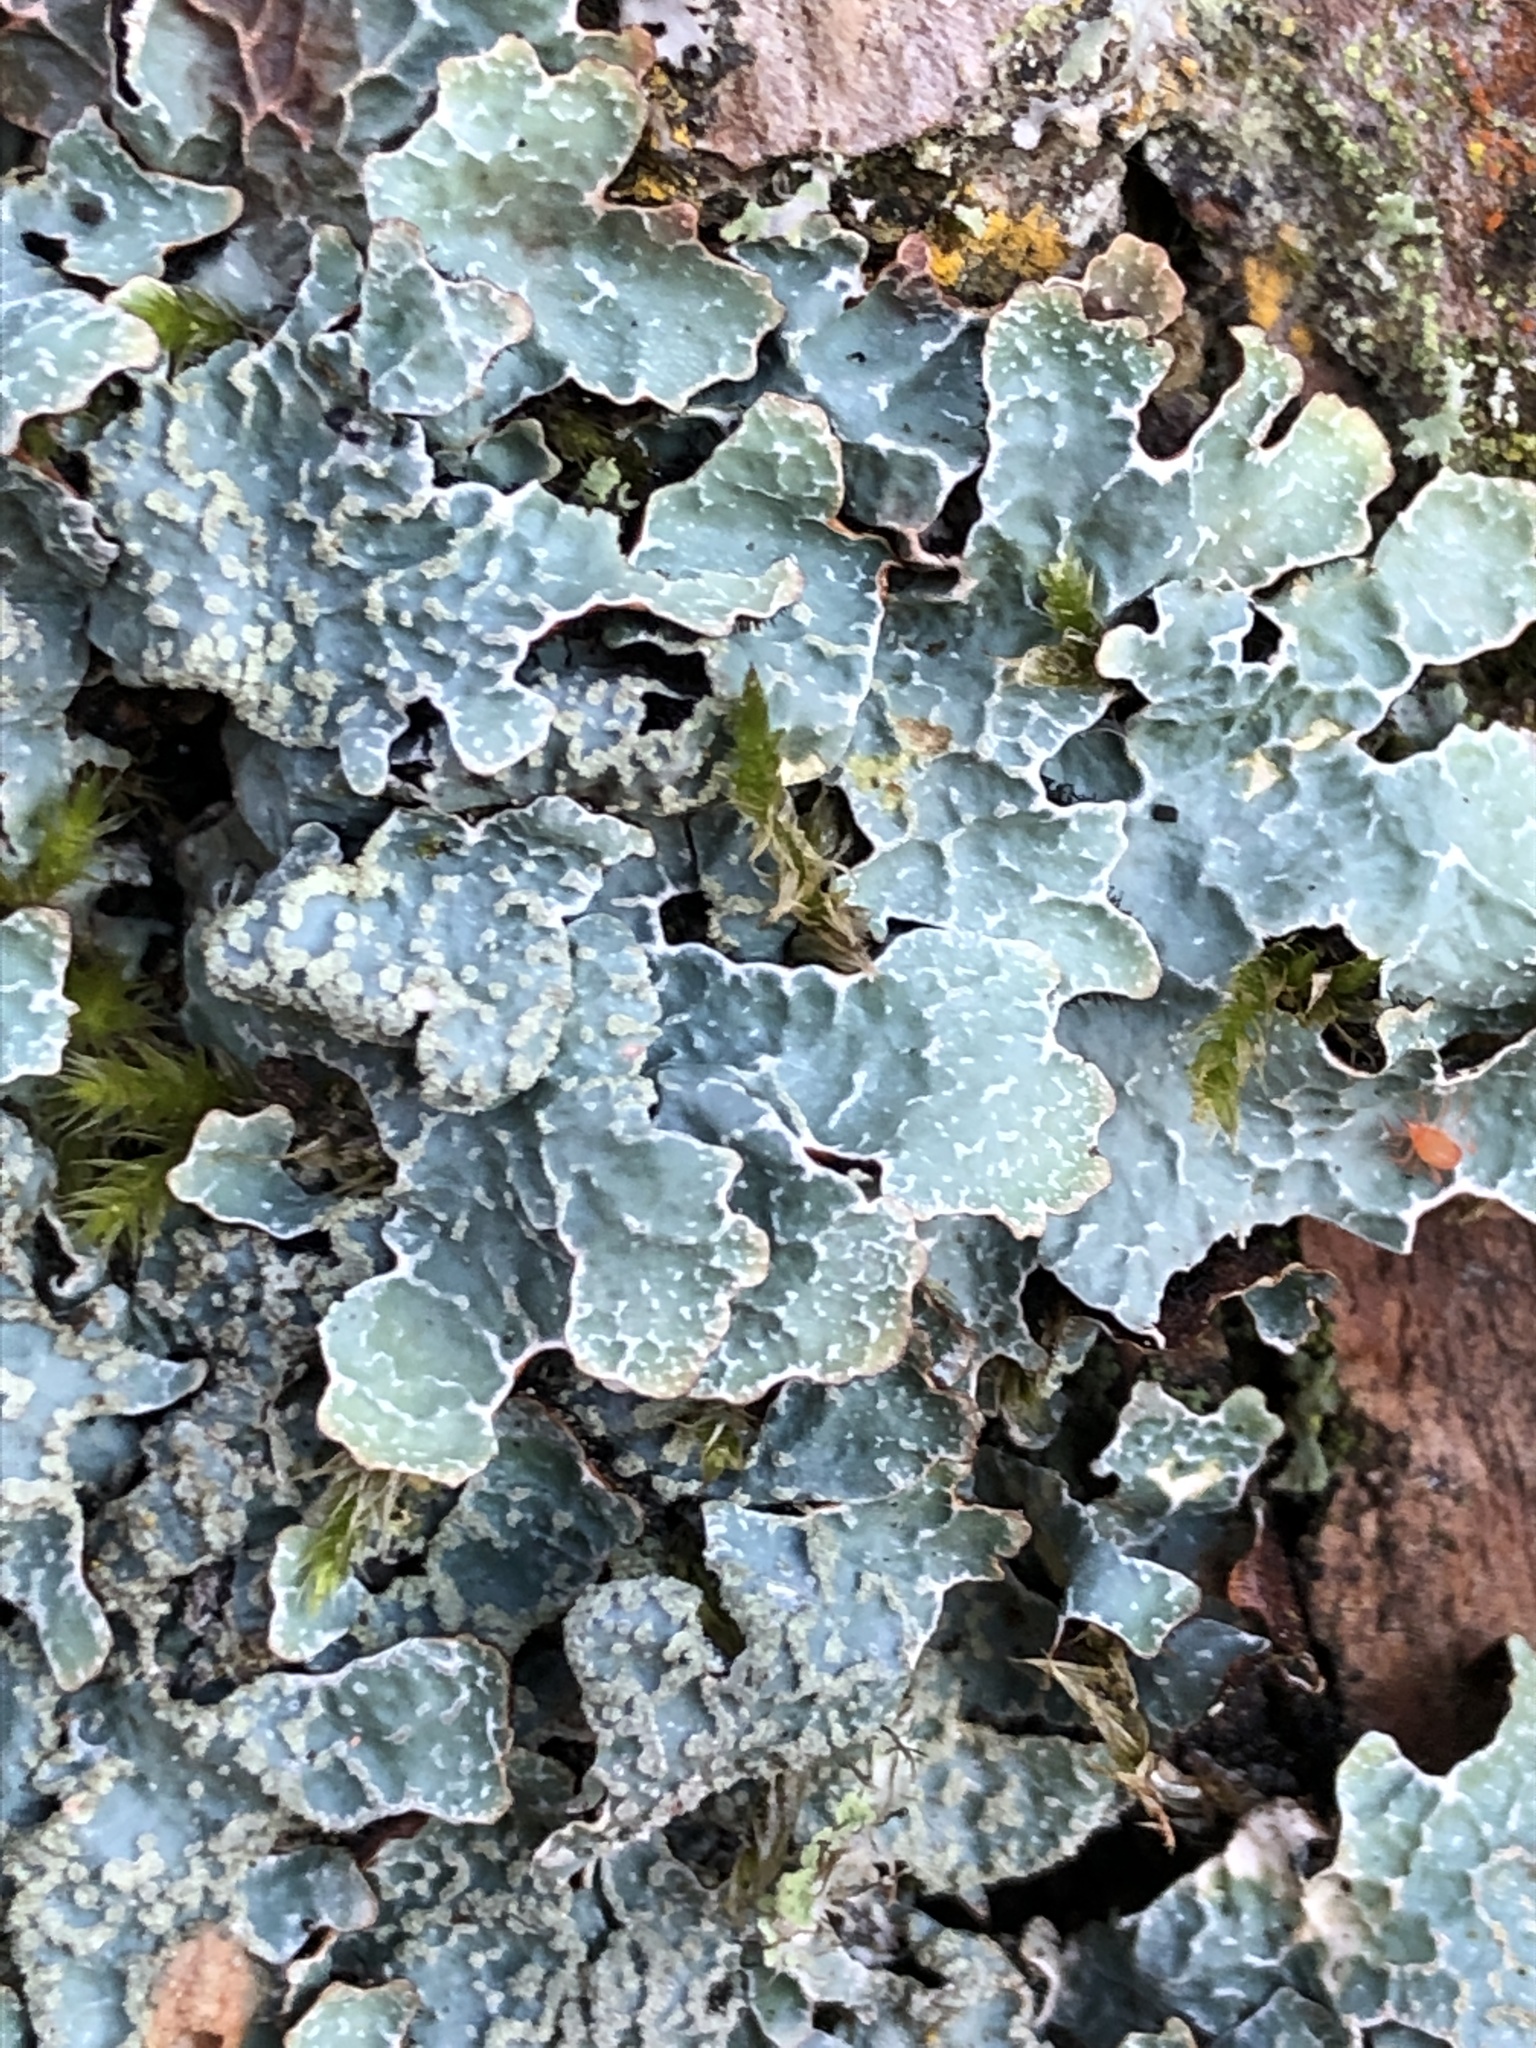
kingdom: Fungi
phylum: Ascomycota
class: Lecanoromycetes
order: Lecanorales
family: Parmeliaceae
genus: Parmelia
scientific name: Parmelia sulcata
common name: Netted shield lichen
